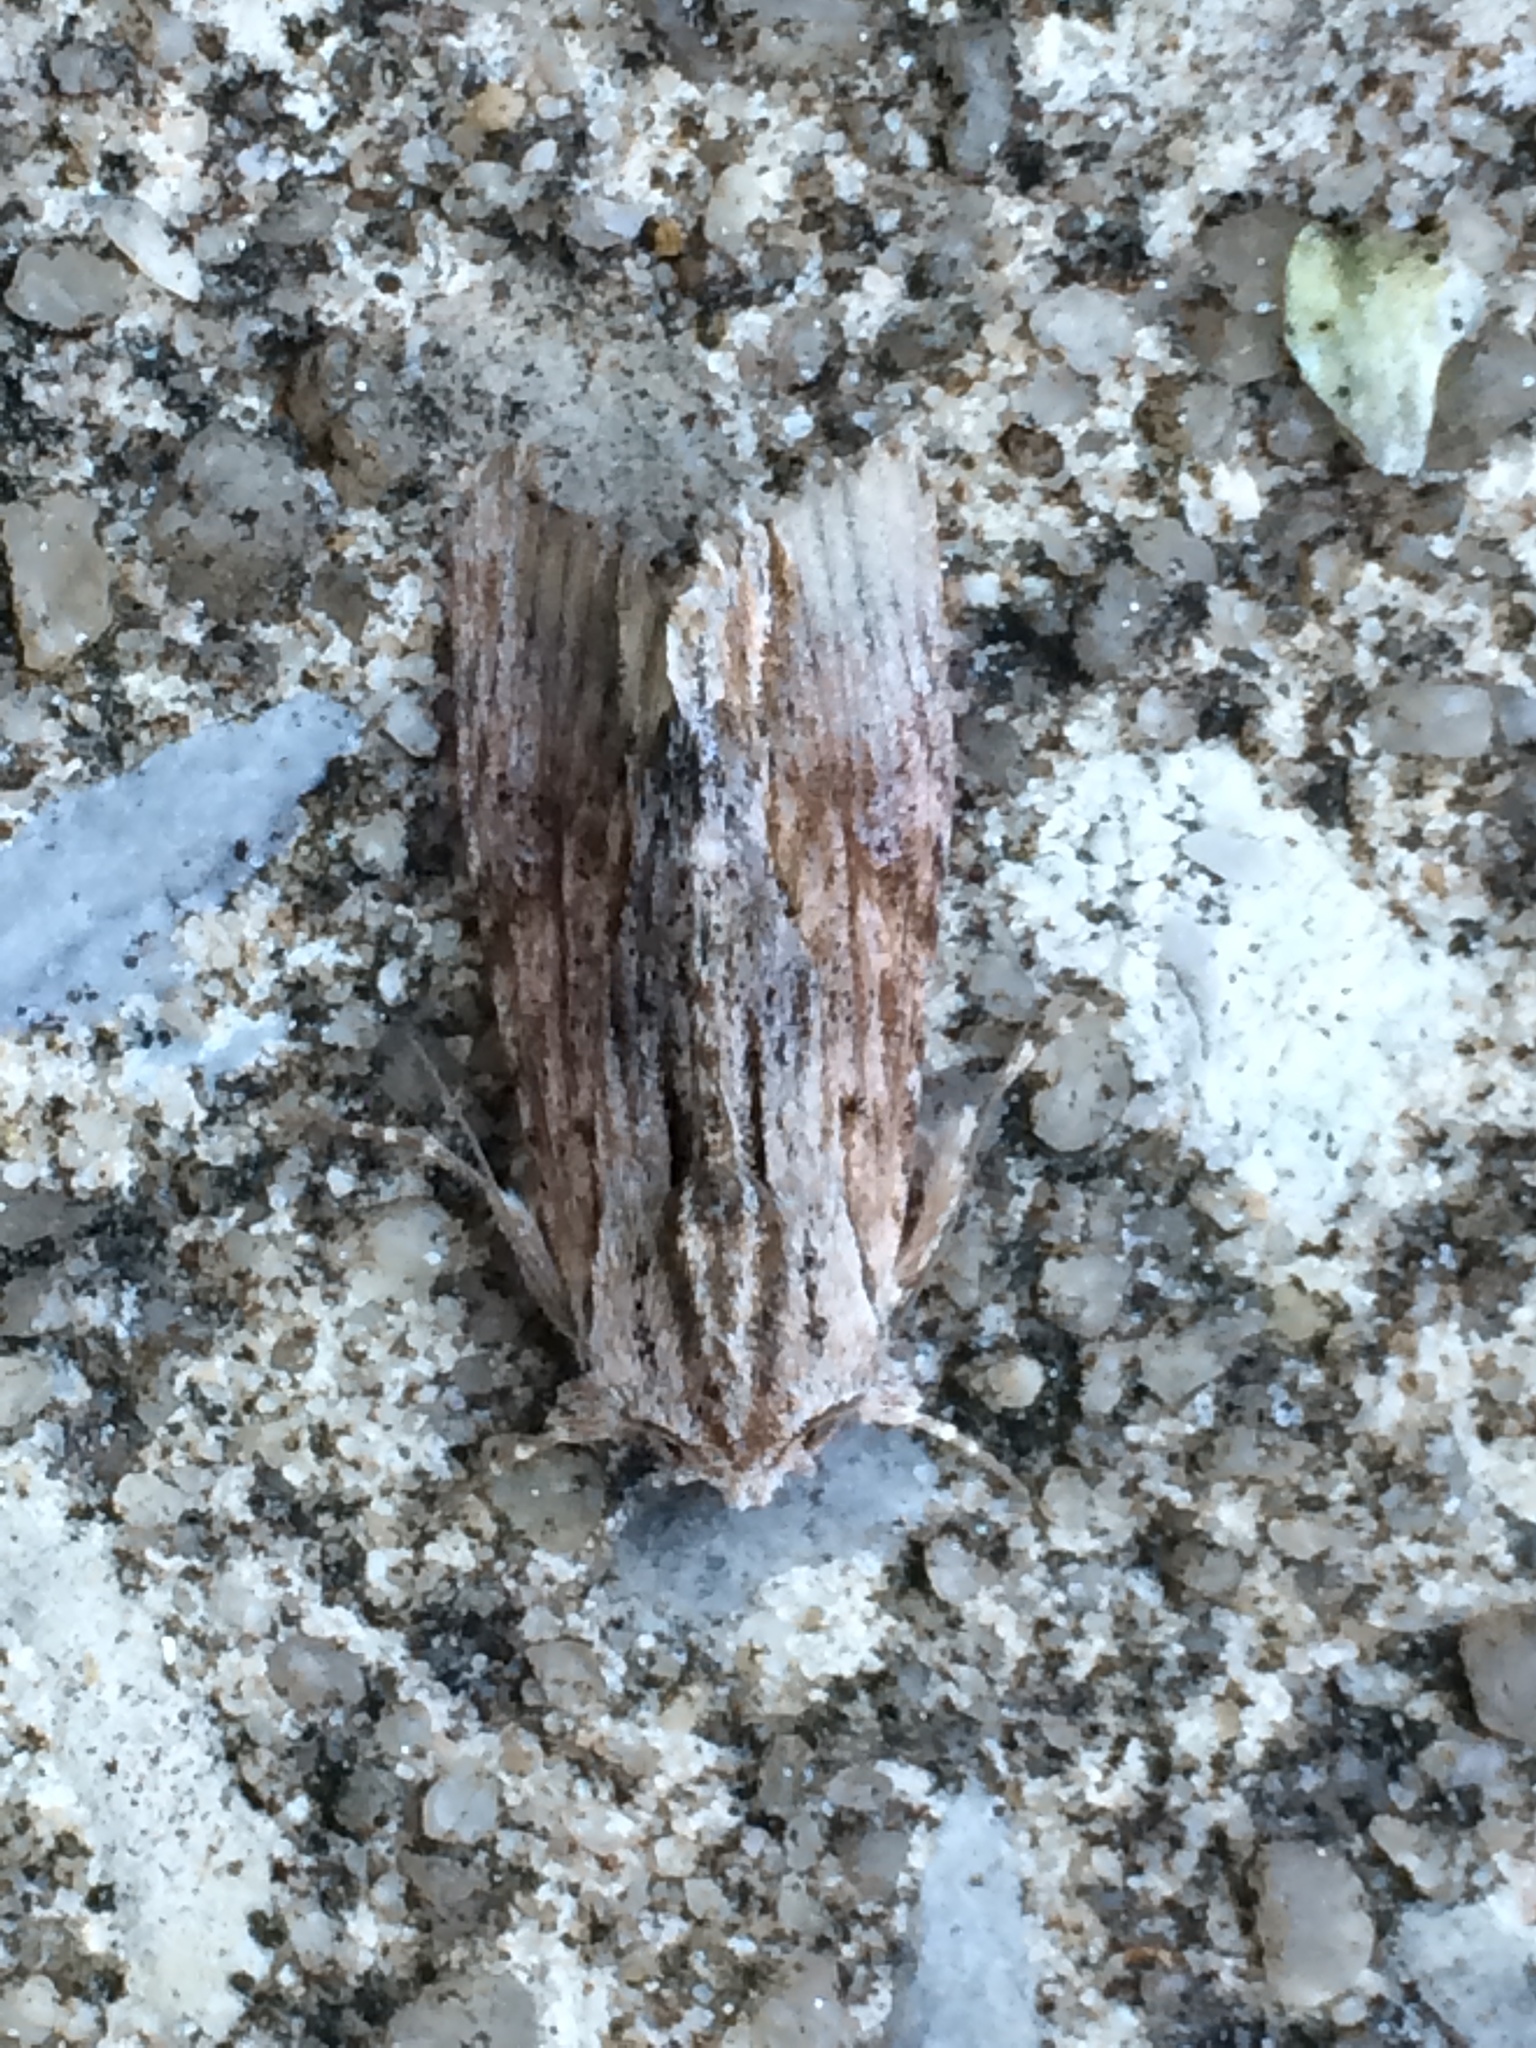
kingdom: Animalia
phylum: Arthropoda
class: Insecta
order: Lepidoptera
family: Noctuidae
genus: Spodoptera
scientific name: Spodoptera eridania
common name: Southern army worm
